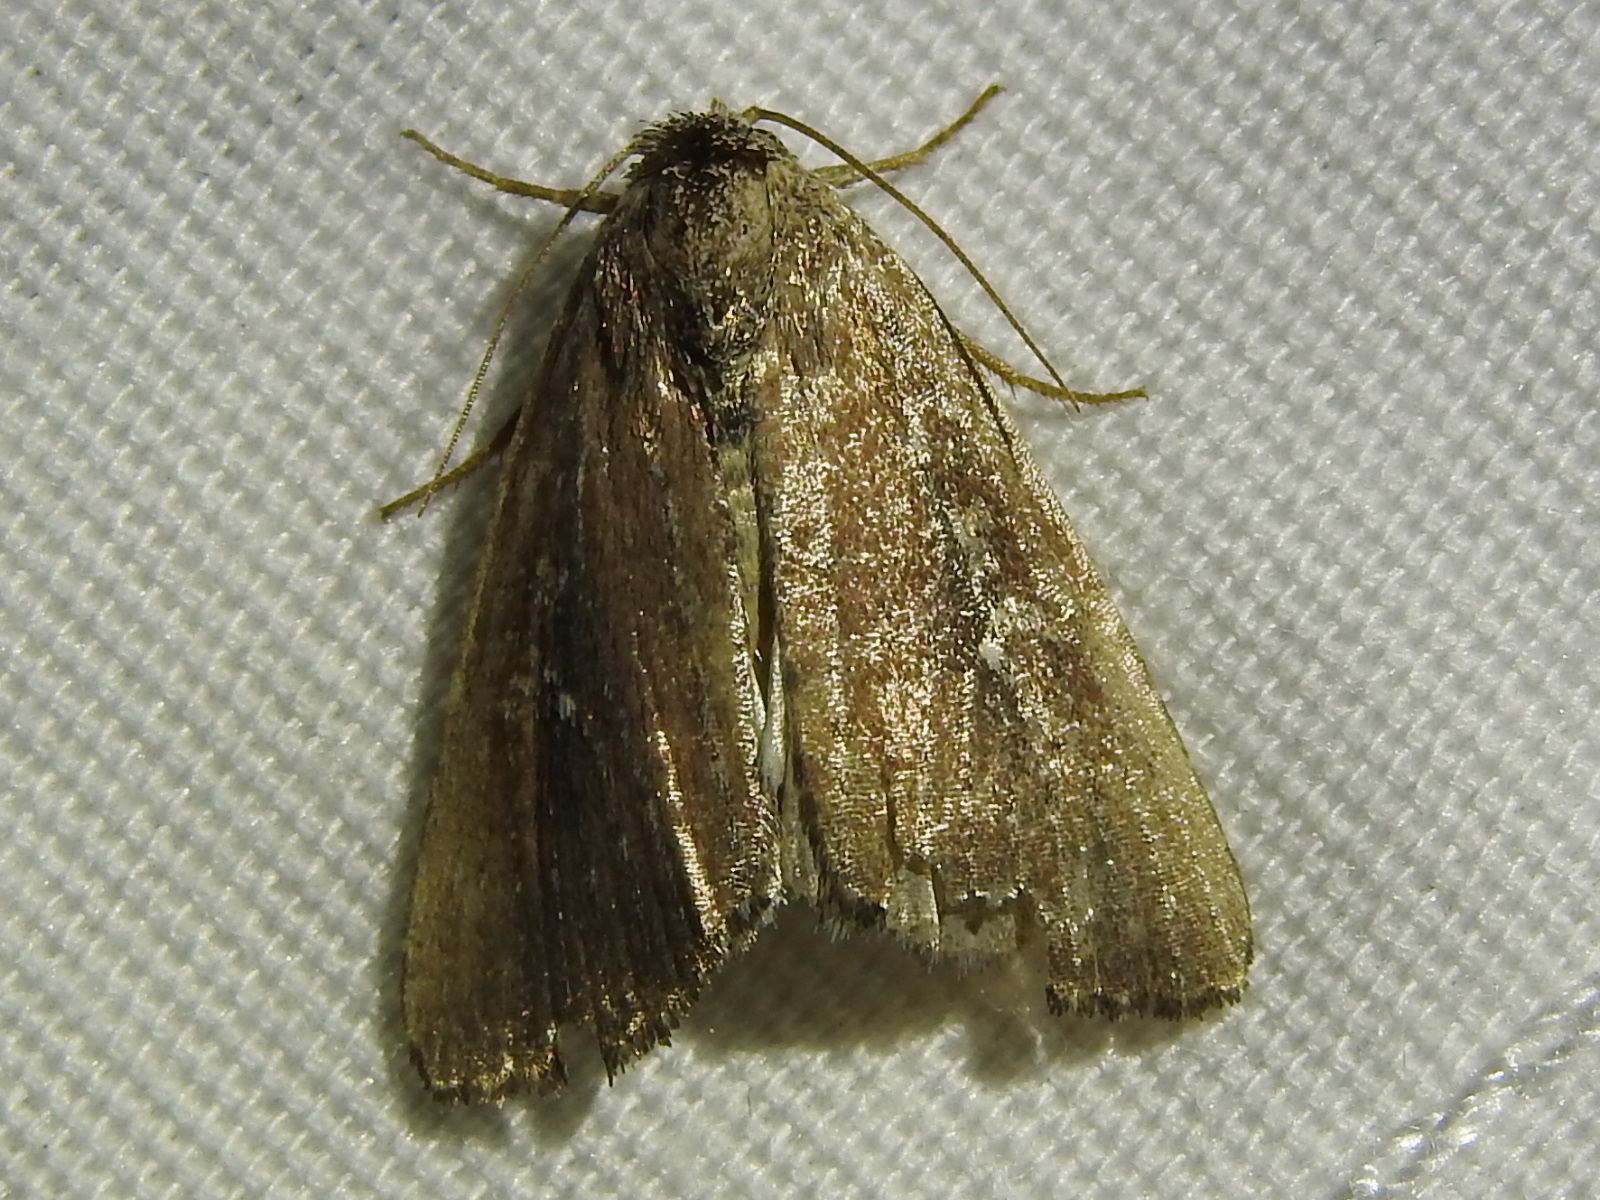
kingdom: Animalia
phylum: Arthropoda
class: Insecta
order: Lepidoptera
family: Noctuidae
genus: Condica
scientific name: Condica videns
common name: White-dotted groundling
